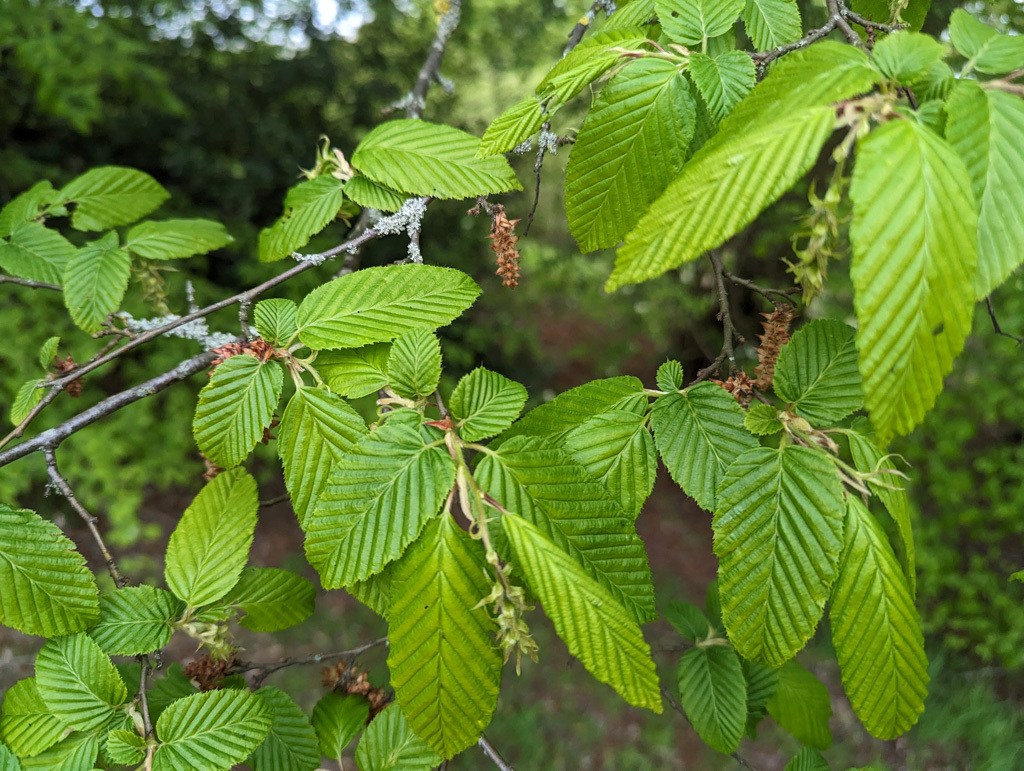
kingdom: Plantae
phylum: Tracheophyta
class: Magnoliopsida
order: Fagales
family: Betulaceae
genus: Carpinus
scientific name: Carpinus betulus
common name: Hornbeam
